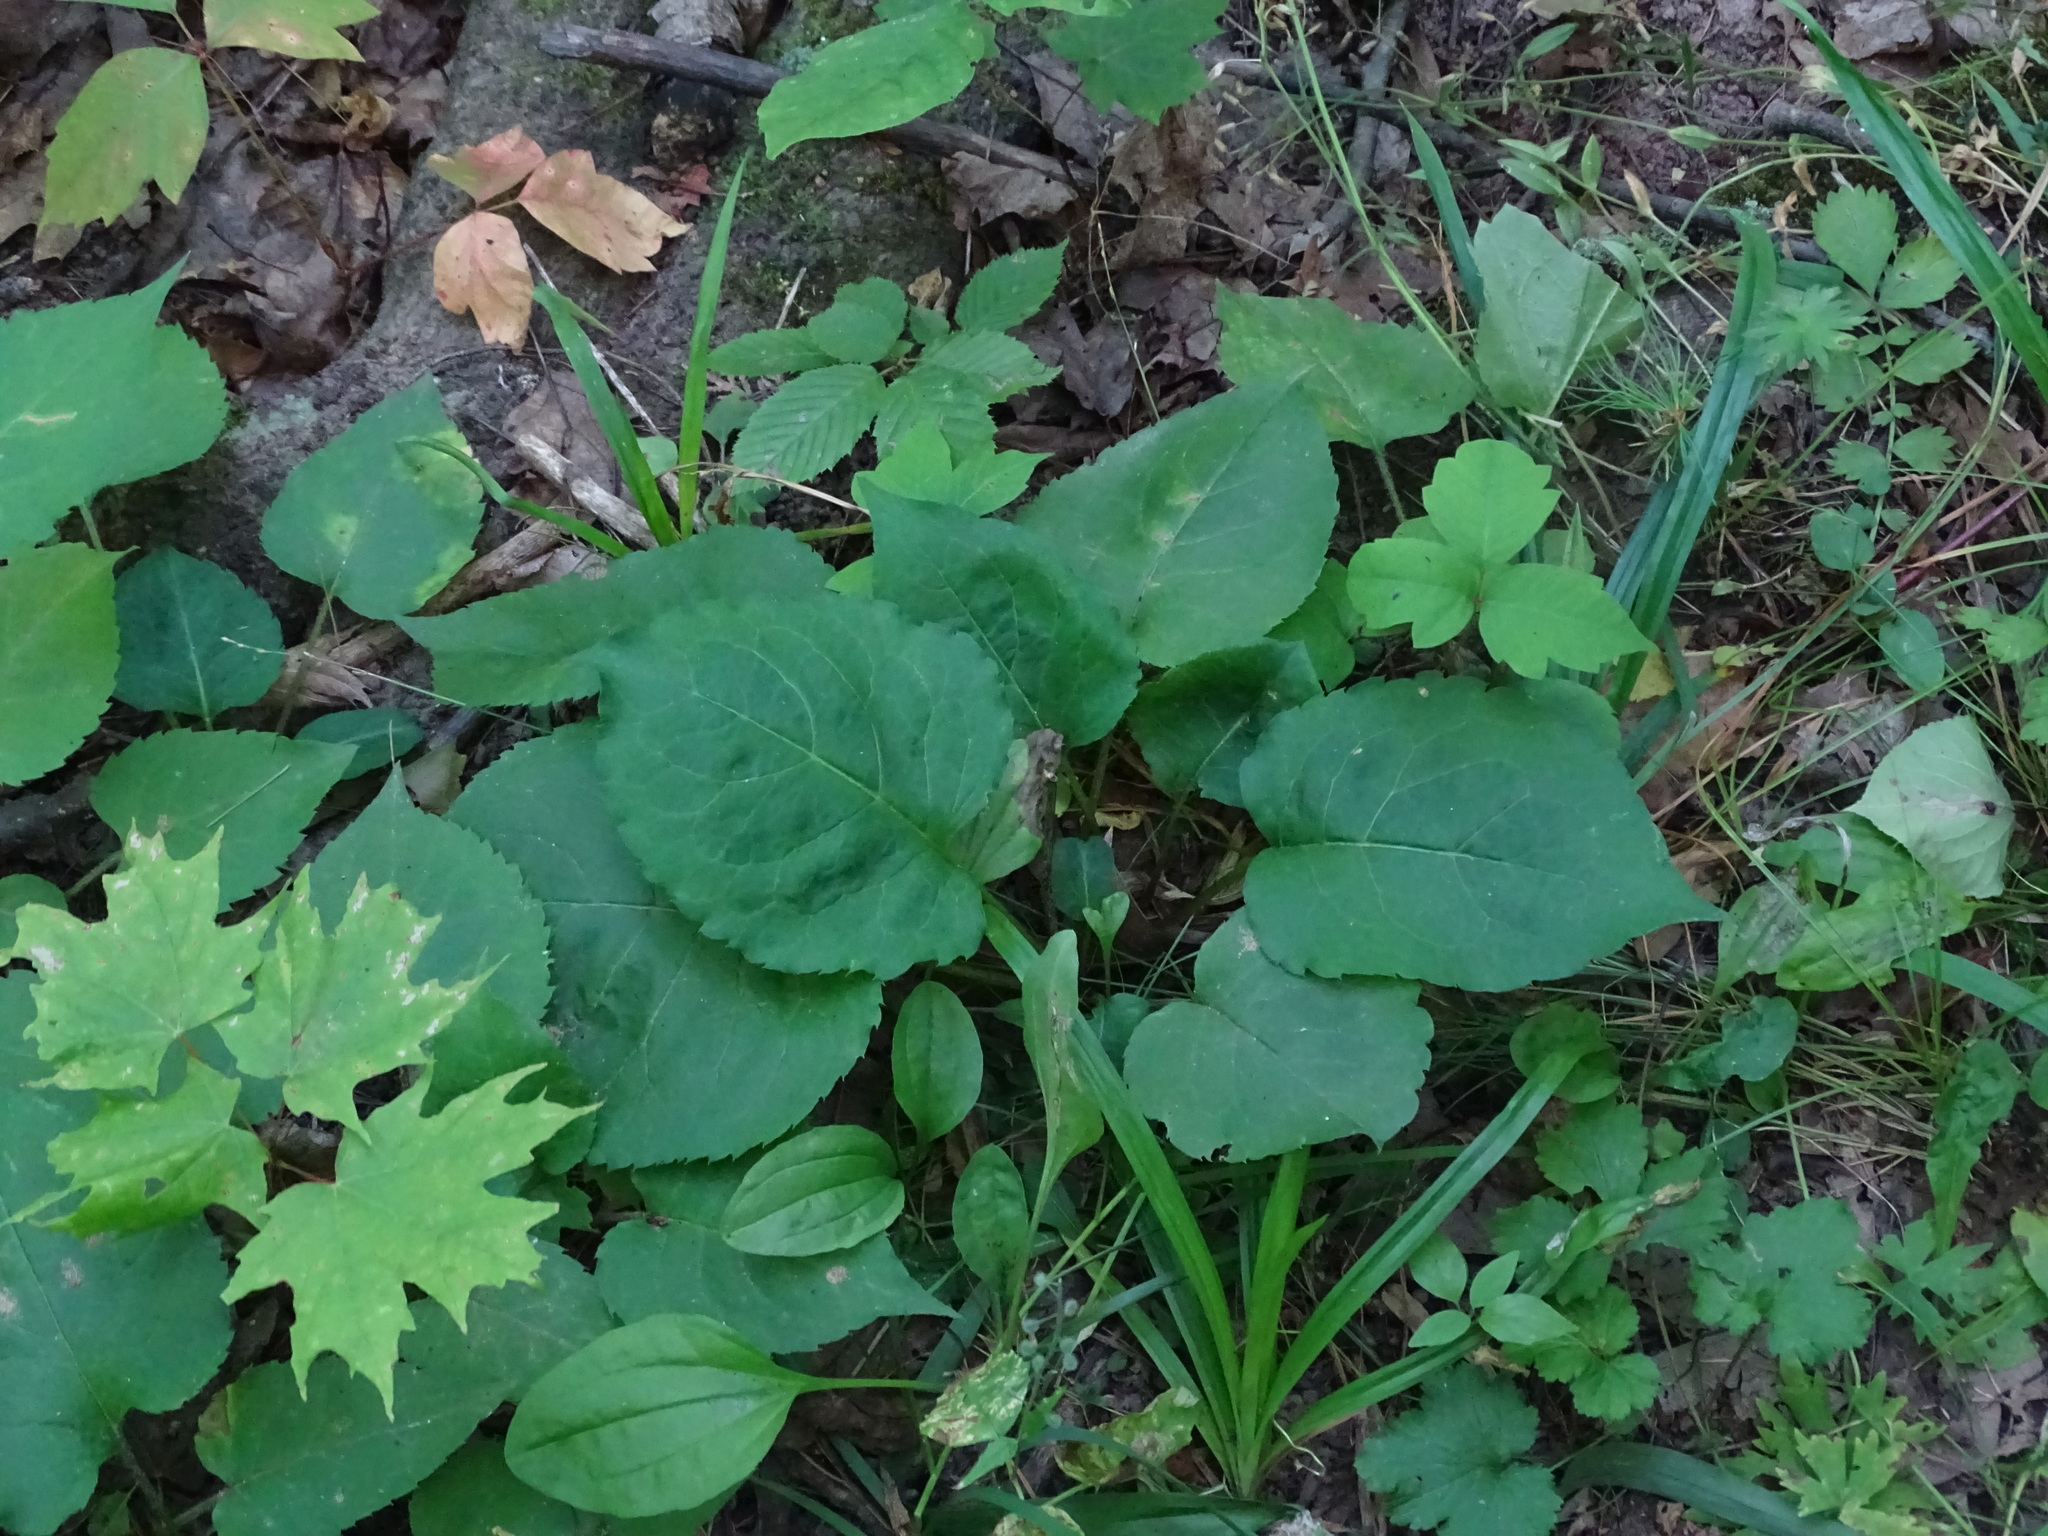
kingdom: Plantae
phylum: Tracheophyta
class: Magnoliopsida
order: Asterales
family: Asteraceae
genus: Eurybia
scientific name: Eurybia macrophylla
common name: Big-leaved aster
